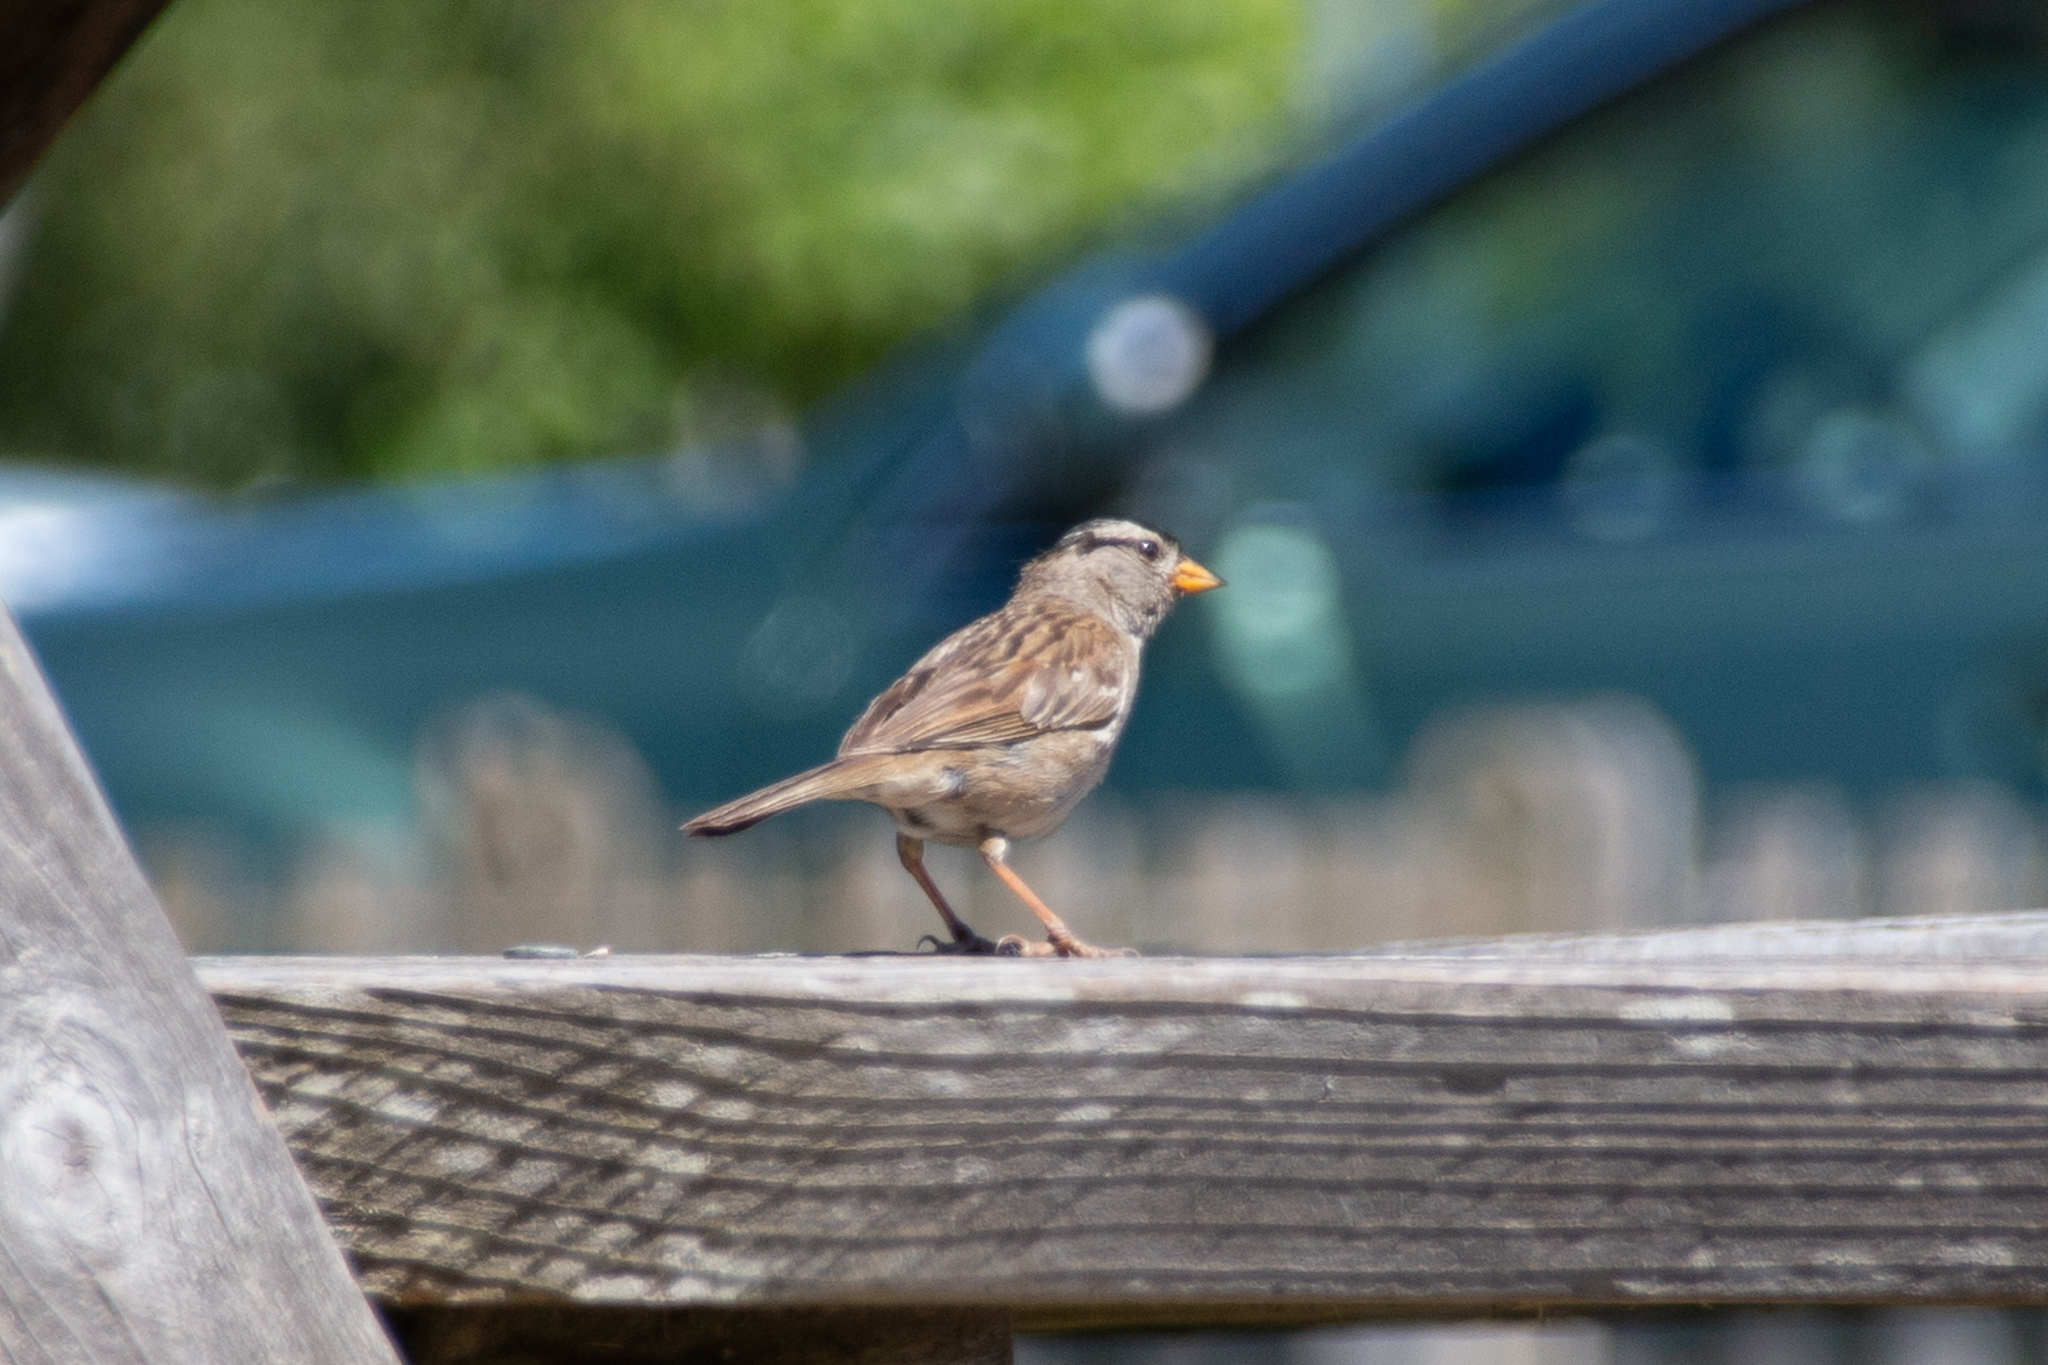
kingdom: Animalia
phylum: Chordata
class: Aves
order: Passeriformes
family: Passerellidae
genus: Zonotrichia
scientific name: Zonotrichia leucophrys
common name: White-crowned sparrow
